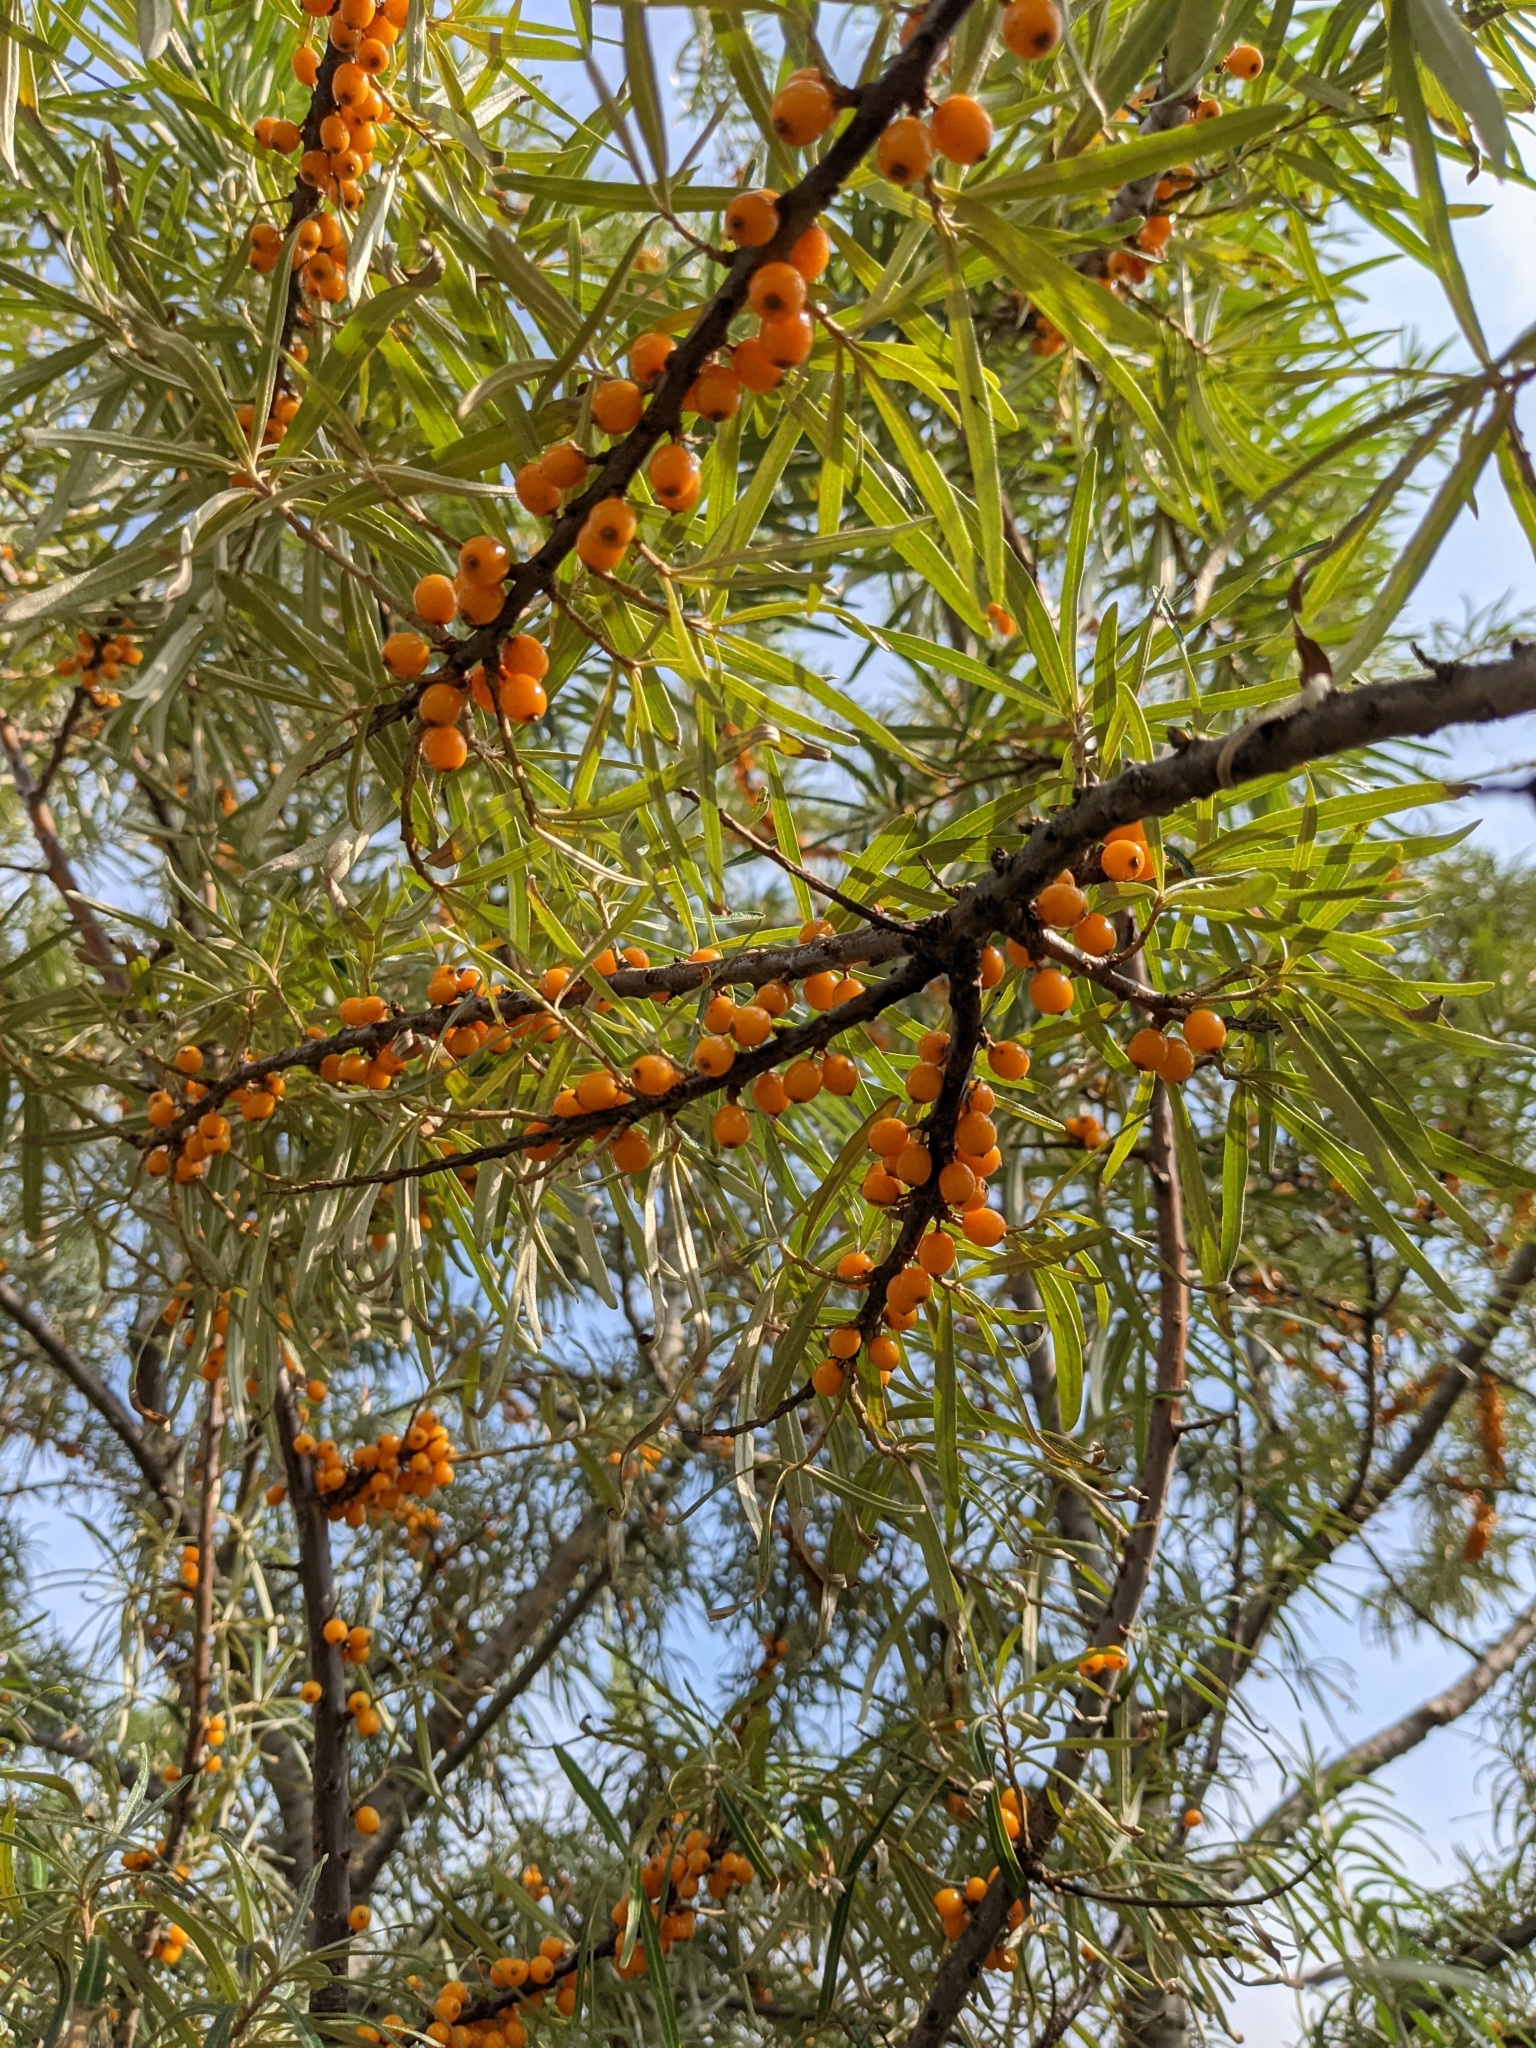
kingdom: Plantae
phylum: Tracheophyta
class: Magnoliopsida
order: Rosales
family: Elaeagnaceae
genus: Hippophae
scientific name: Hippophae rhamnoides
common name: Sea-buckthorn
